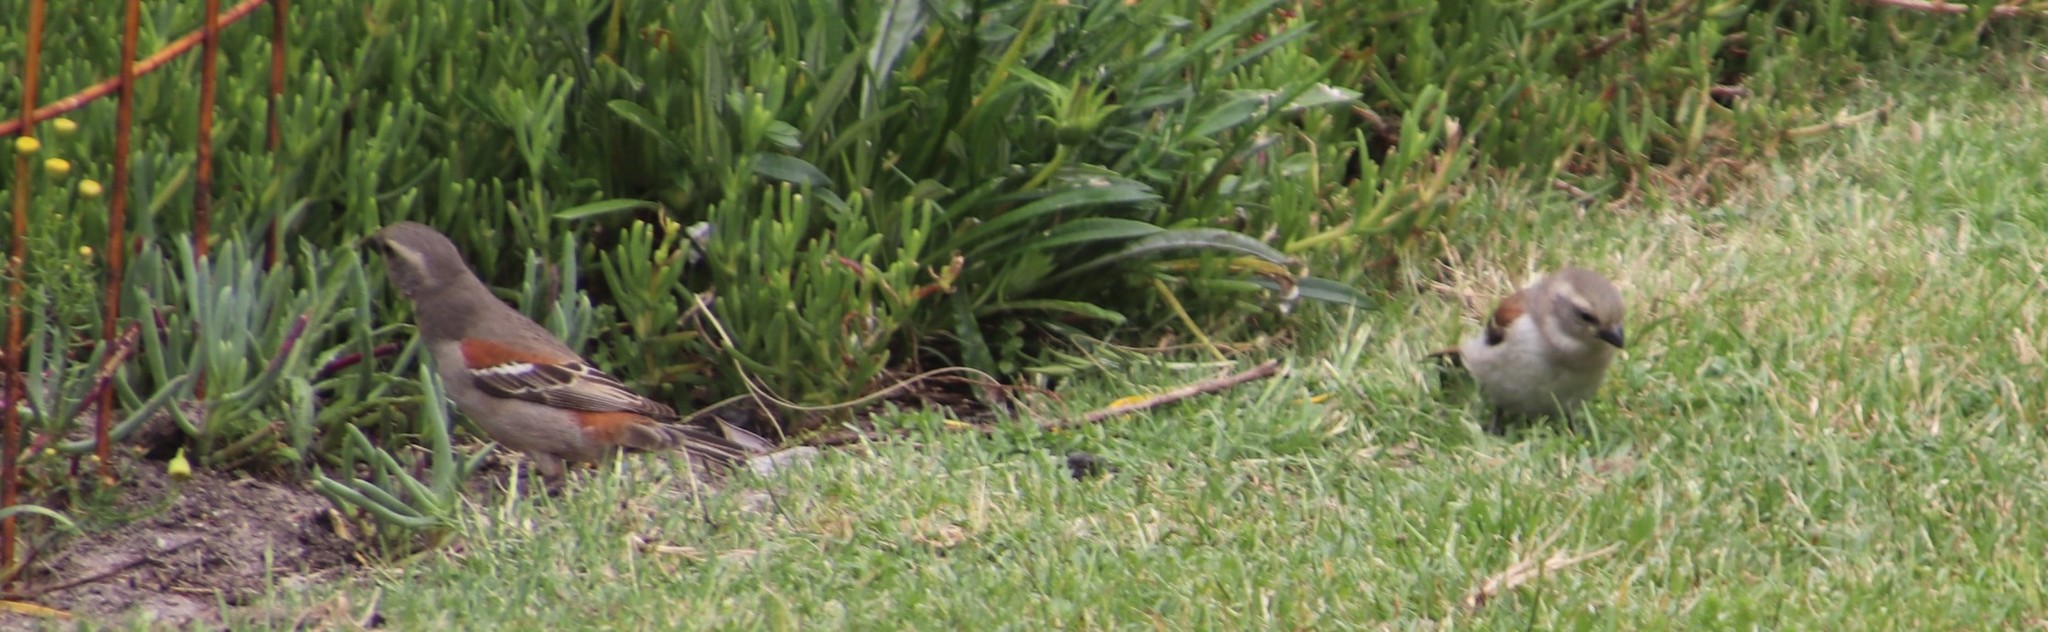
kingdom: Animalia
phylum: Chordata
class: Aves
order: Passeriformes
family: Passeridae
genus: Passer
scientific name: Passer melanurus
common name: Cape sparrow
